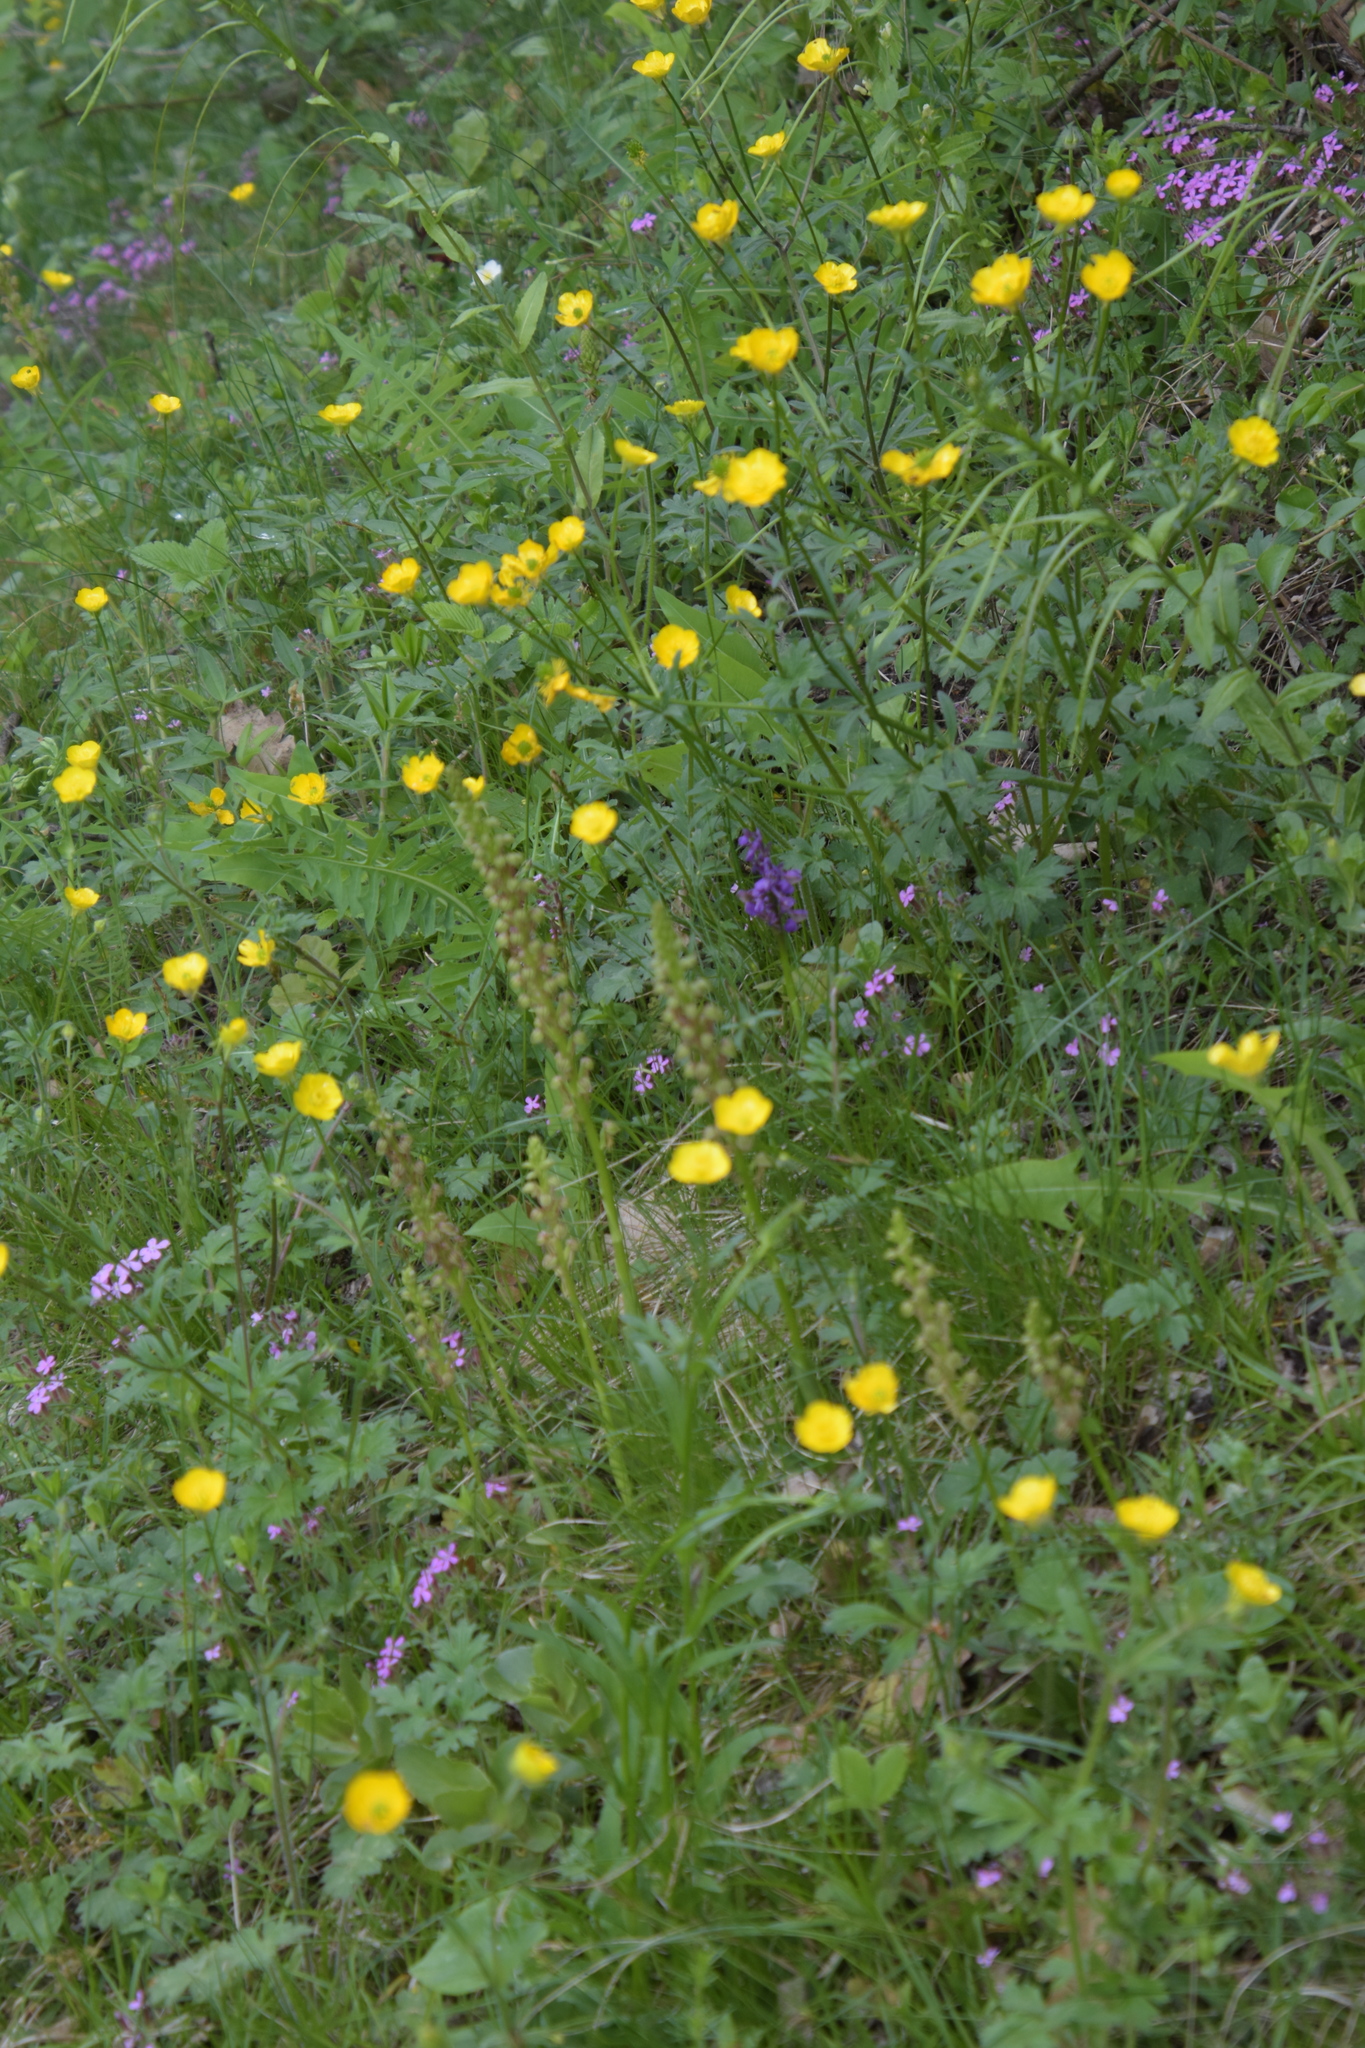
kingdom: Plantae
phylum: Tracheophyta
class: Liliopsida
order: Asparagales
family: Orchidaceae
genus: Orchis
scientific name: Orchis anthropophora
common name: Man orchid
